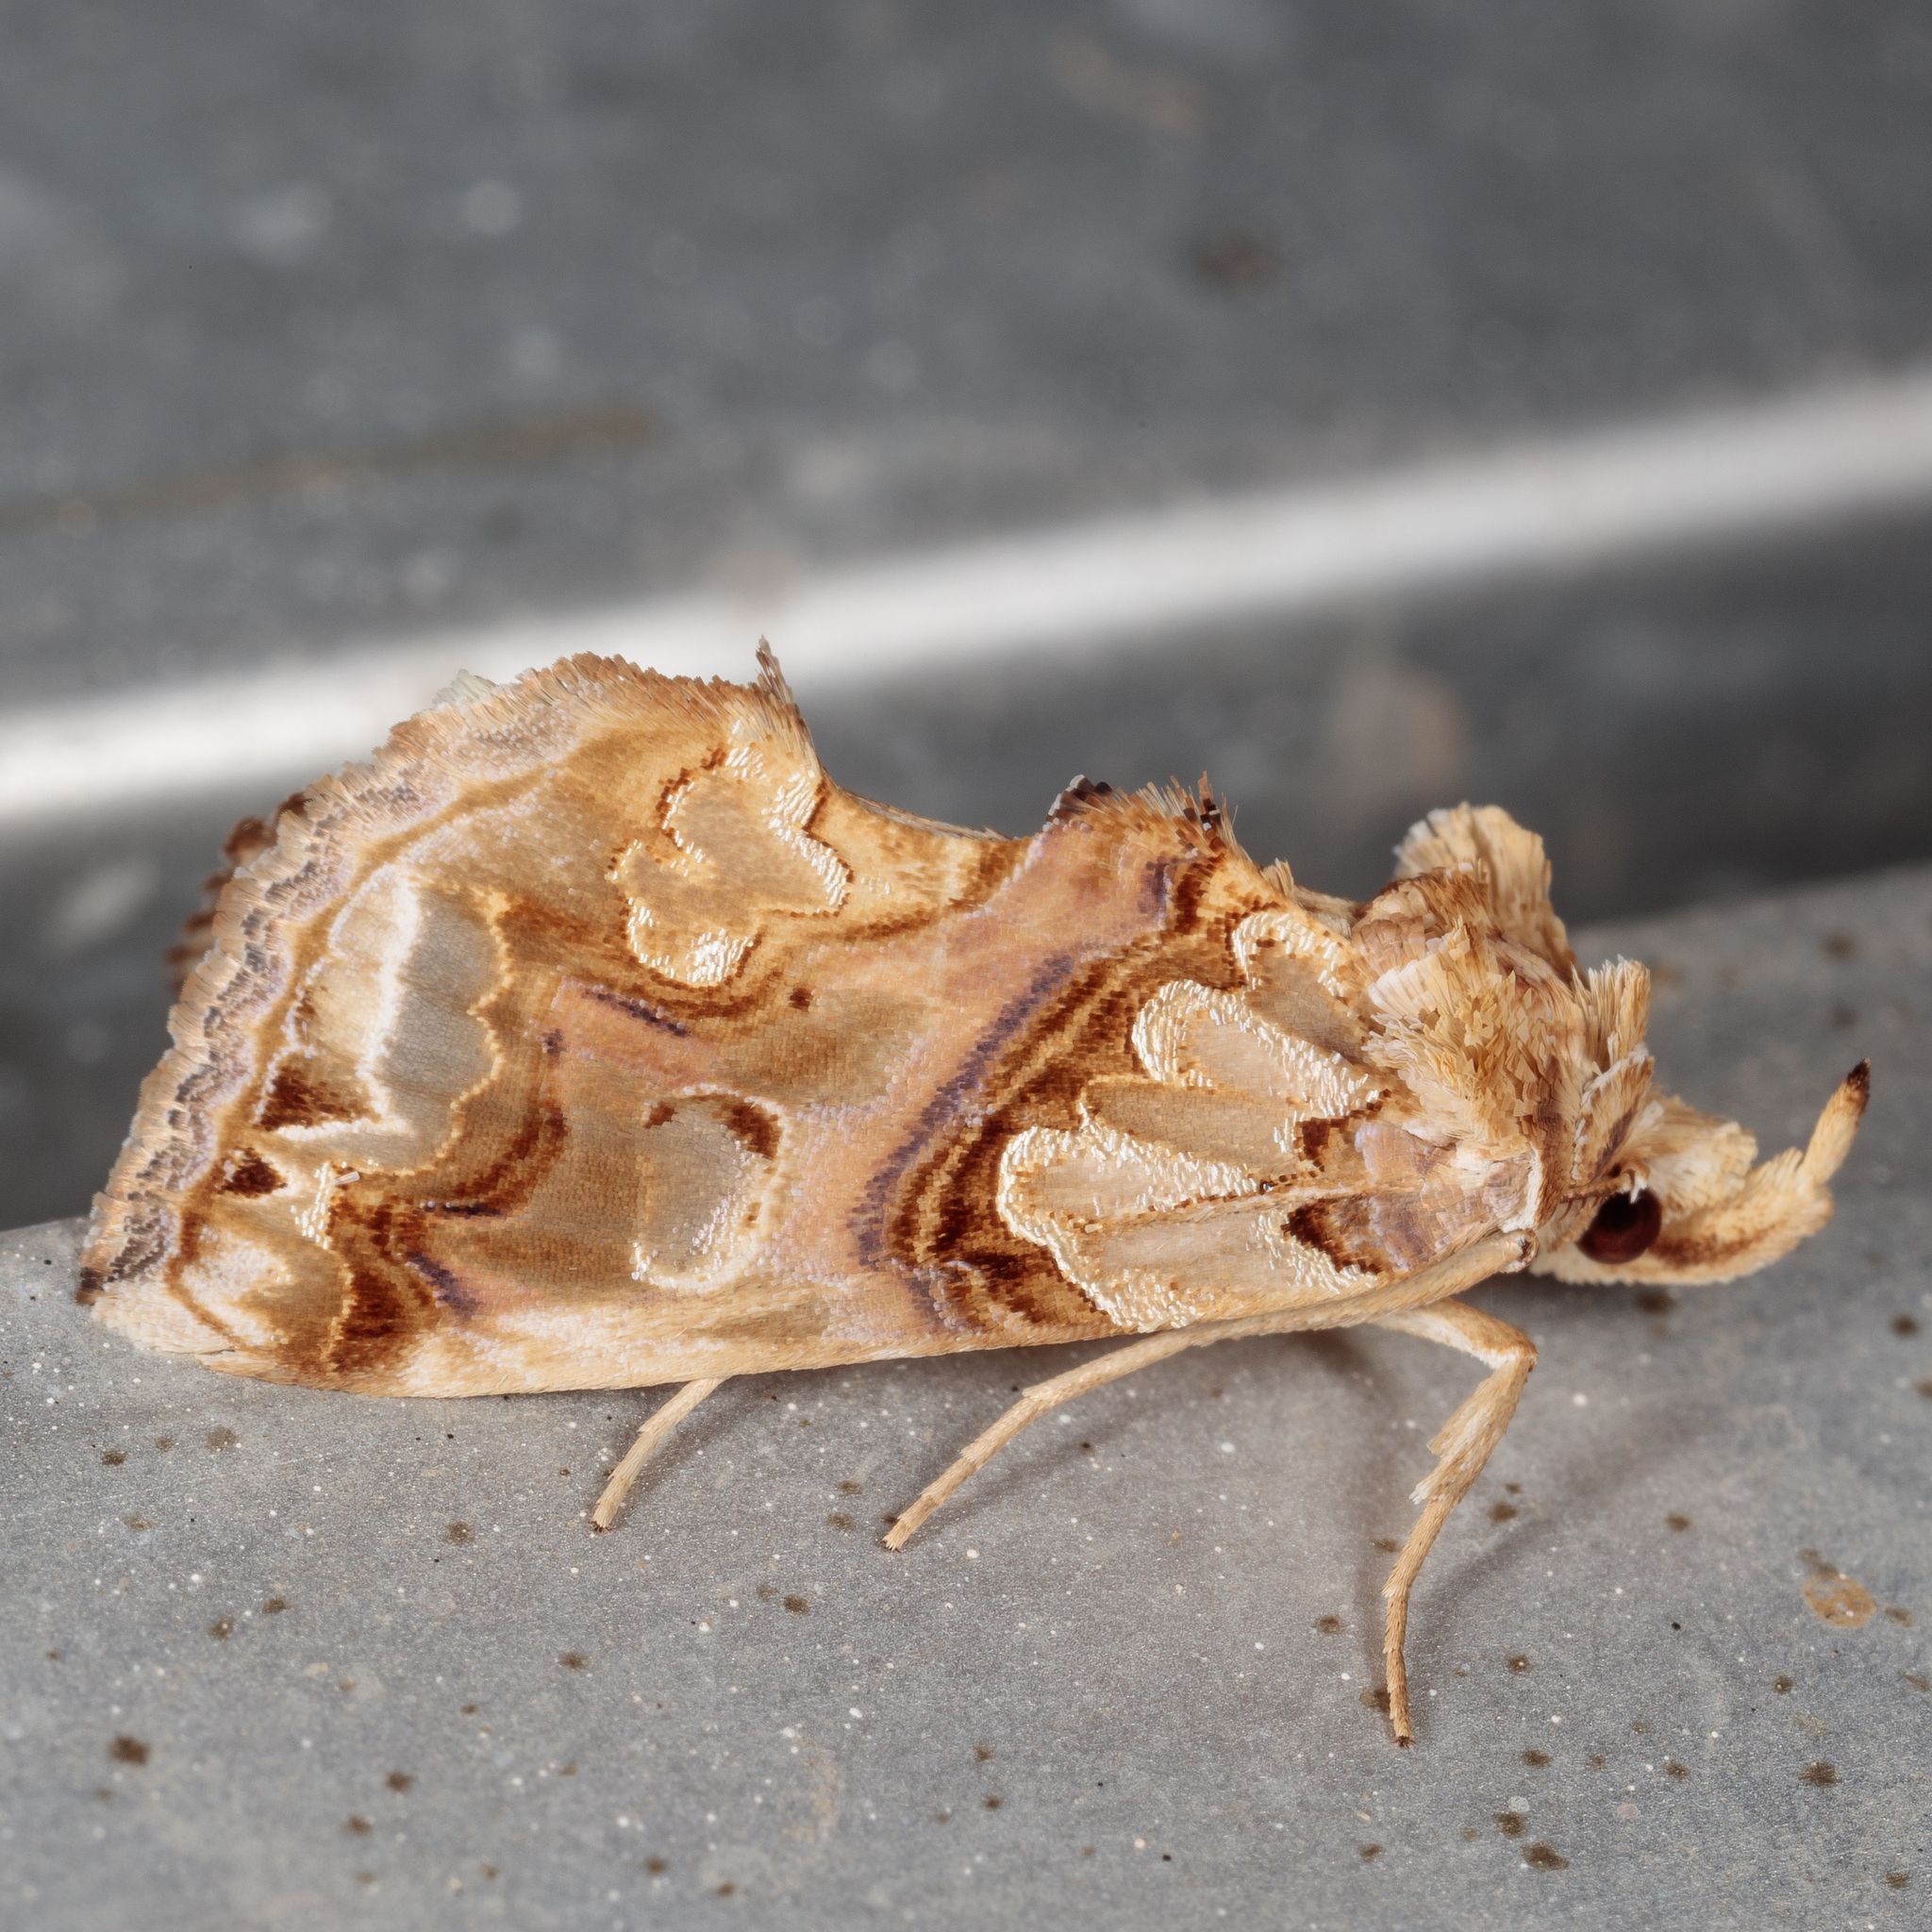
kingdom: Animalia
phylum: Arthropoda
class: Insecta
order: Lepidoptera
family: Erebidae
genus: Plusiodonta
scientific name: Plusiodonta compressipalpis
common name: Moonseed moth
